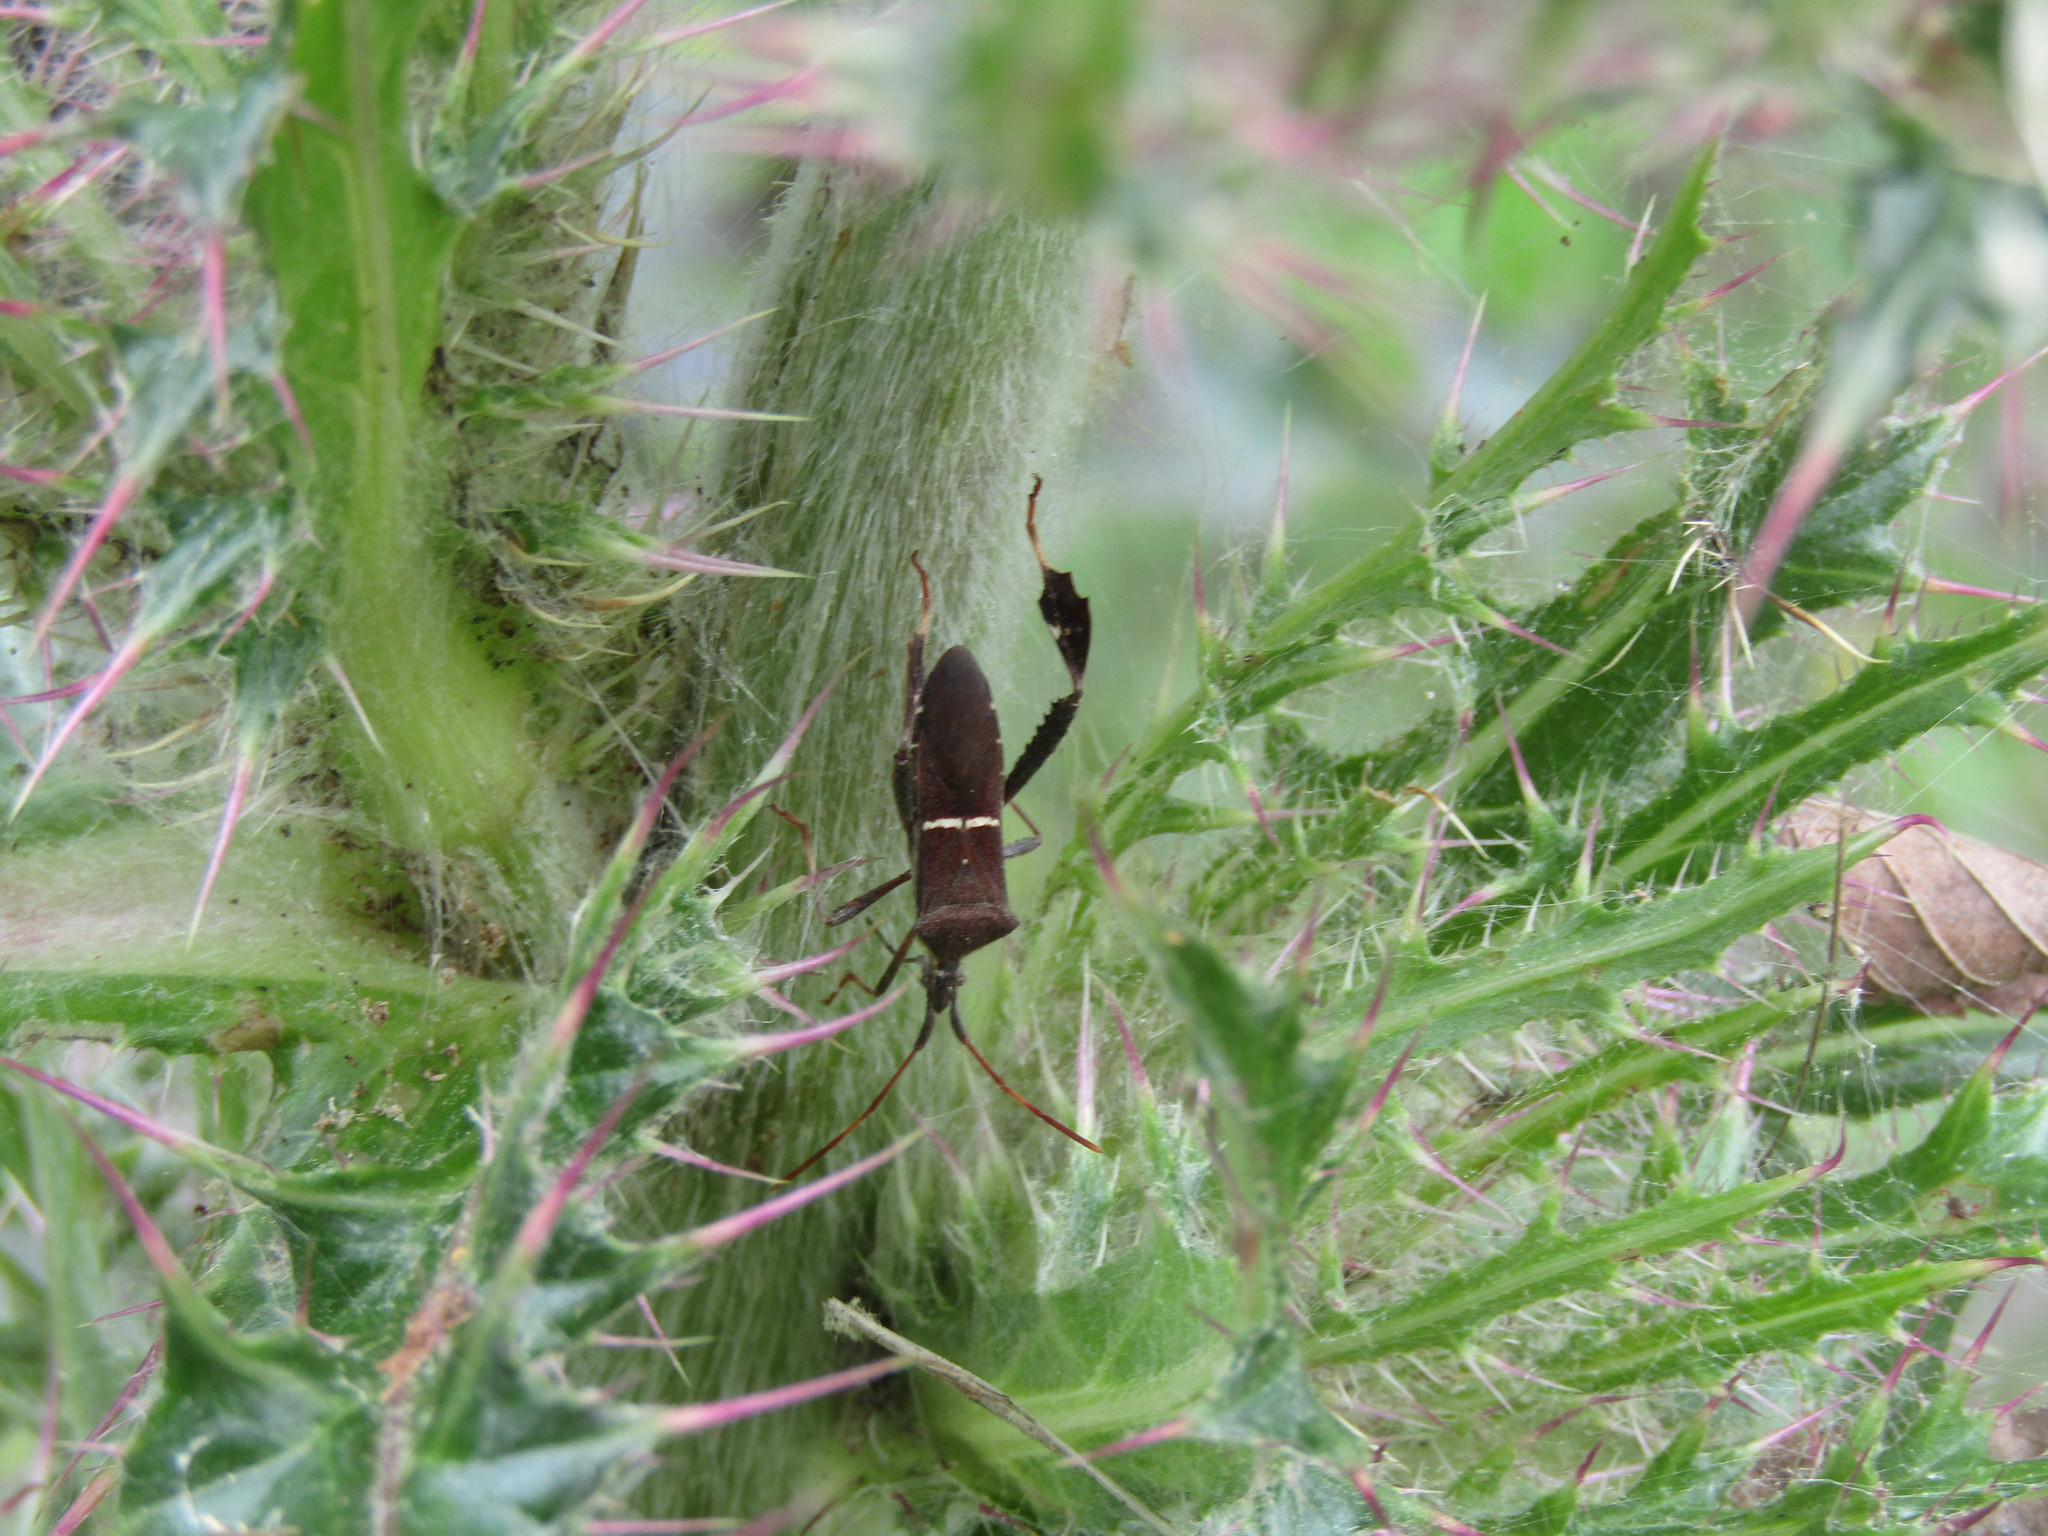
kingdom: Animalia
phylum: Arthropoda
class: Insecta
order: Hemiptera
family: Coreidae
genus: Leptoglossus
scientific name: Leptoglossus phyllopus
